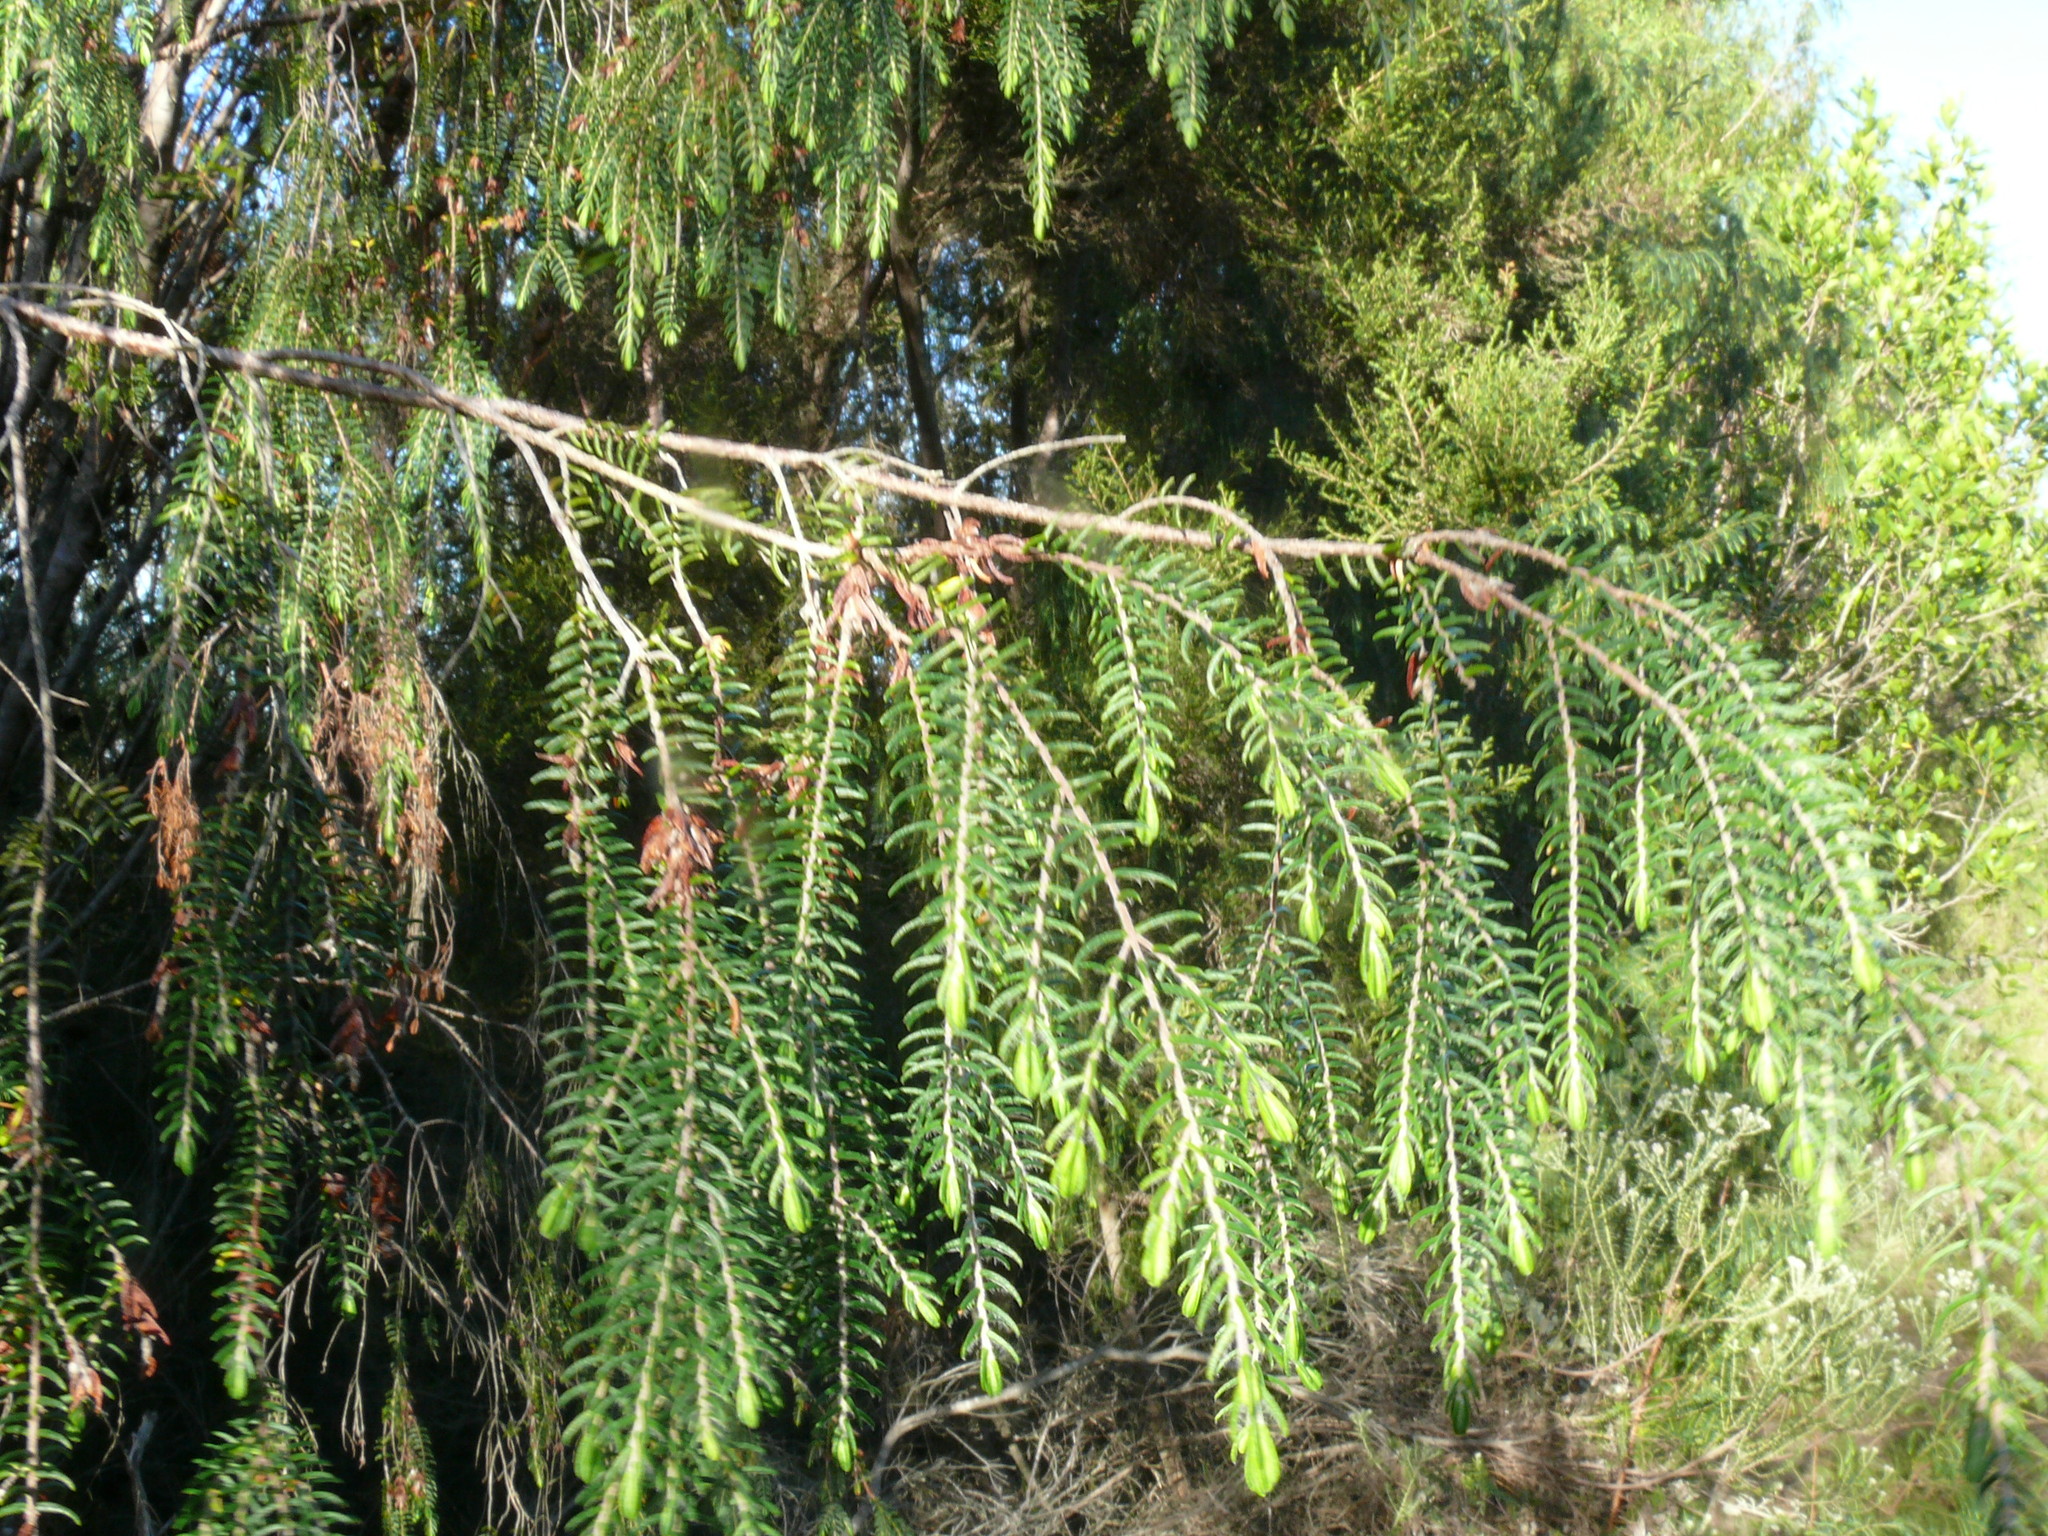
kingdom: Plantae
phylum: Tracheophyta
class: Magnoliopsida
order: Malvales
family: Thymelaeaceae
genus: Passerina
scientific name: Passerina falcifolia
